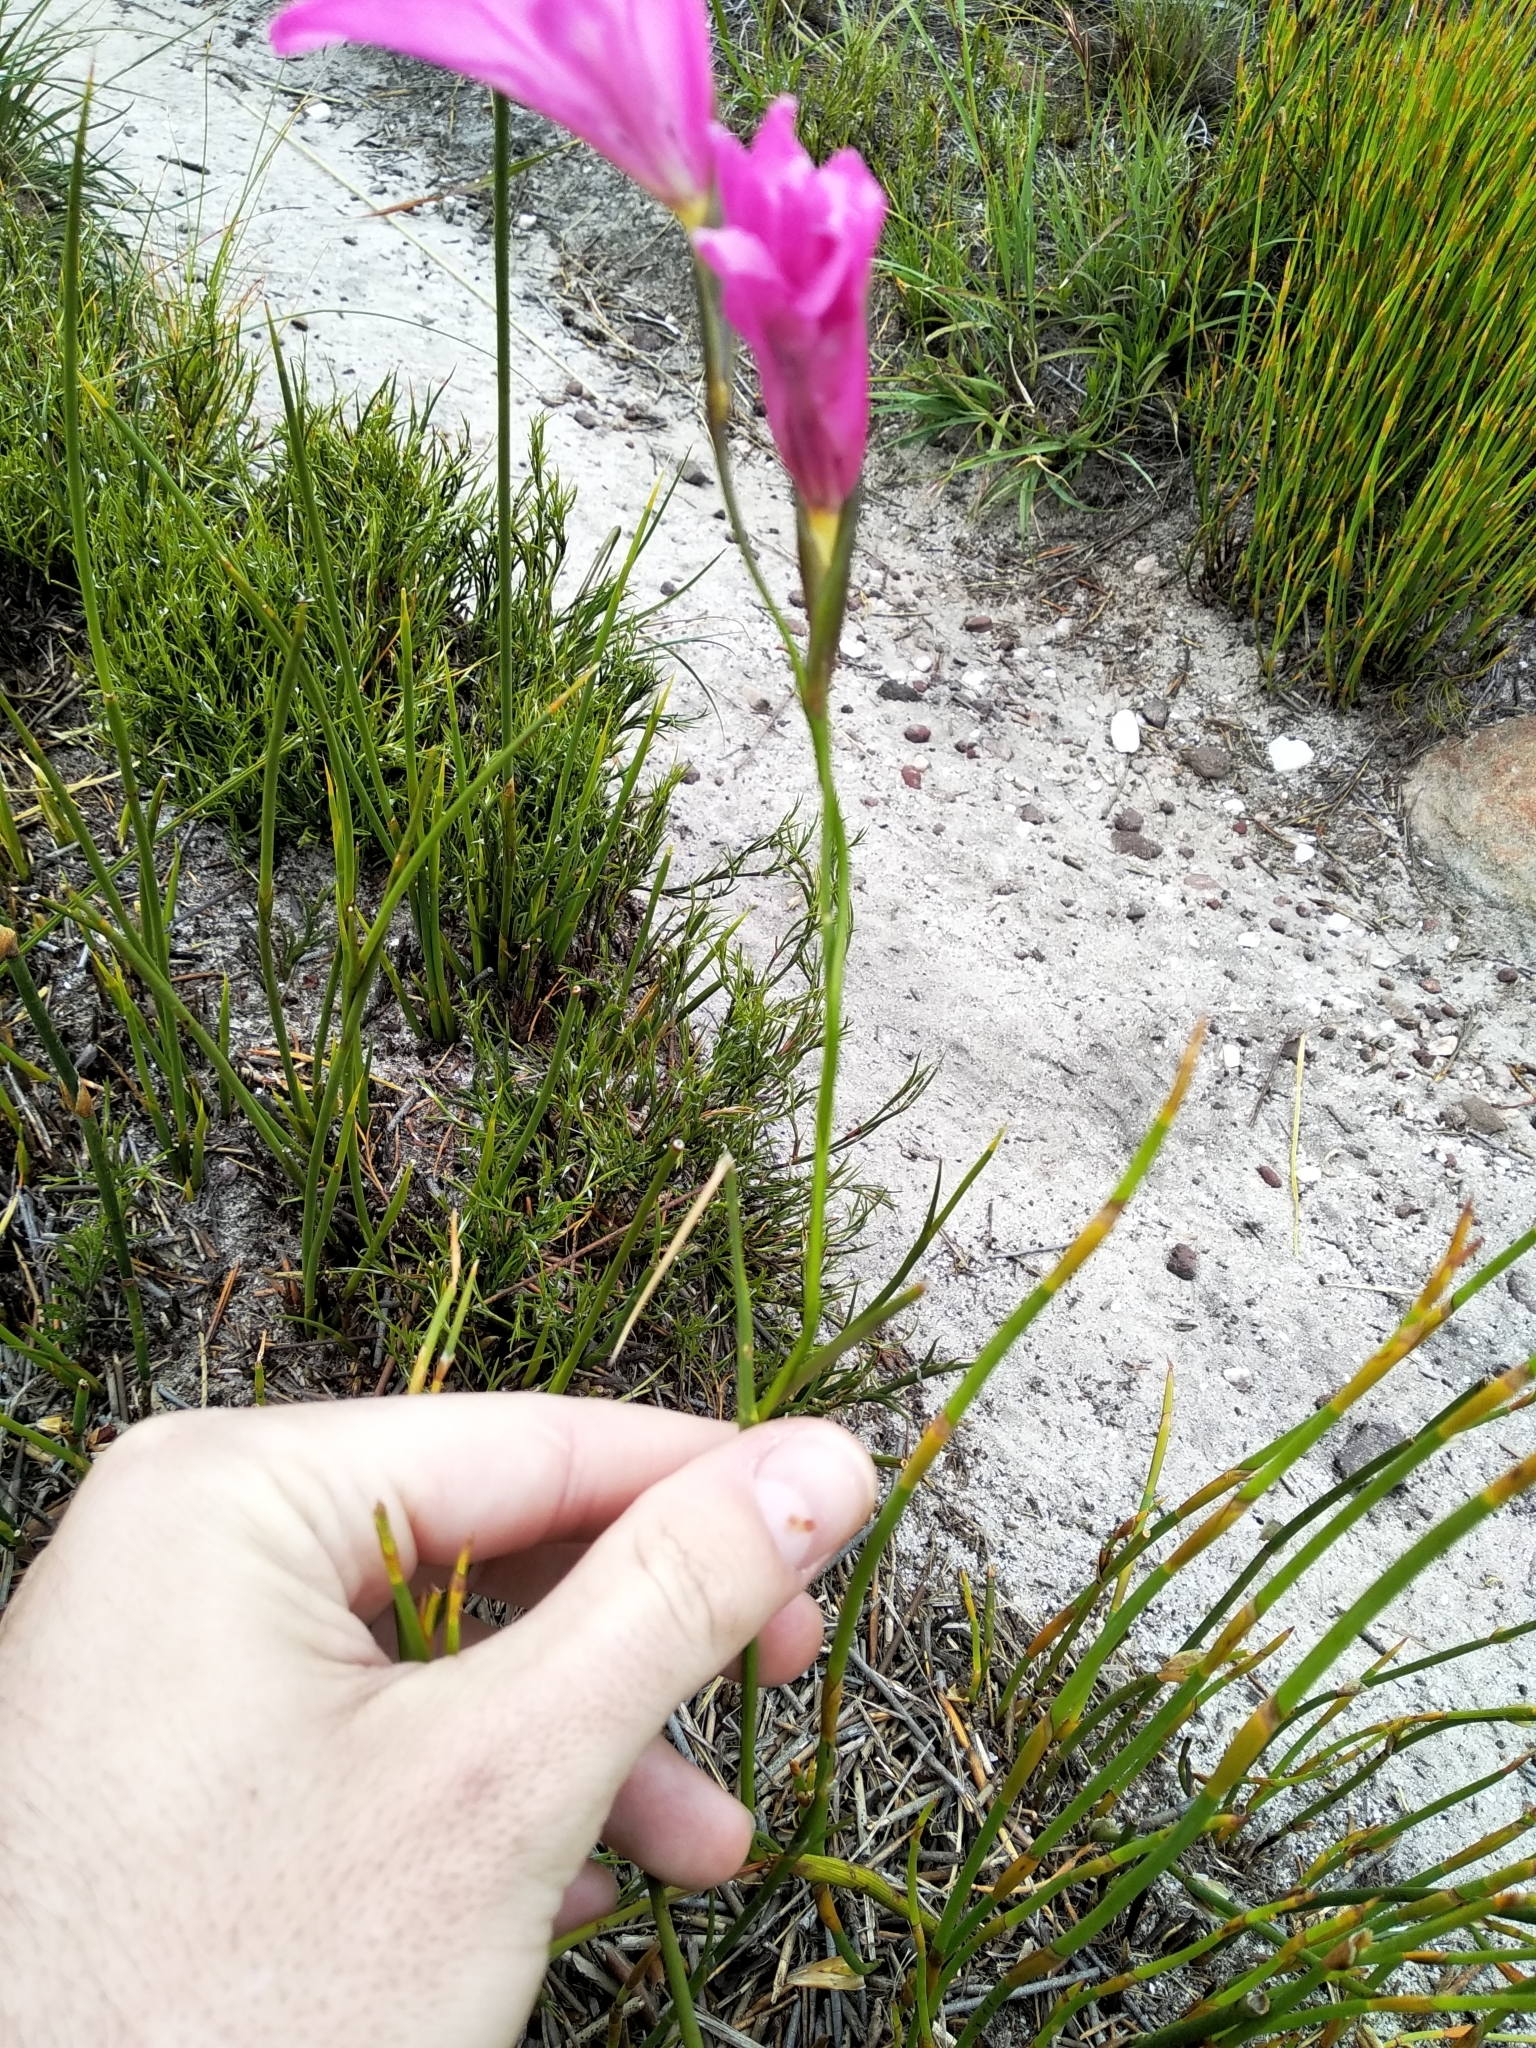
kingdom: Plantae
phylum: Tracheophyta
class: Liliopsida
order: Asparagales
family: Iridaceae
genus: Gladiolus
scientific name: Gladiolus ornatus
